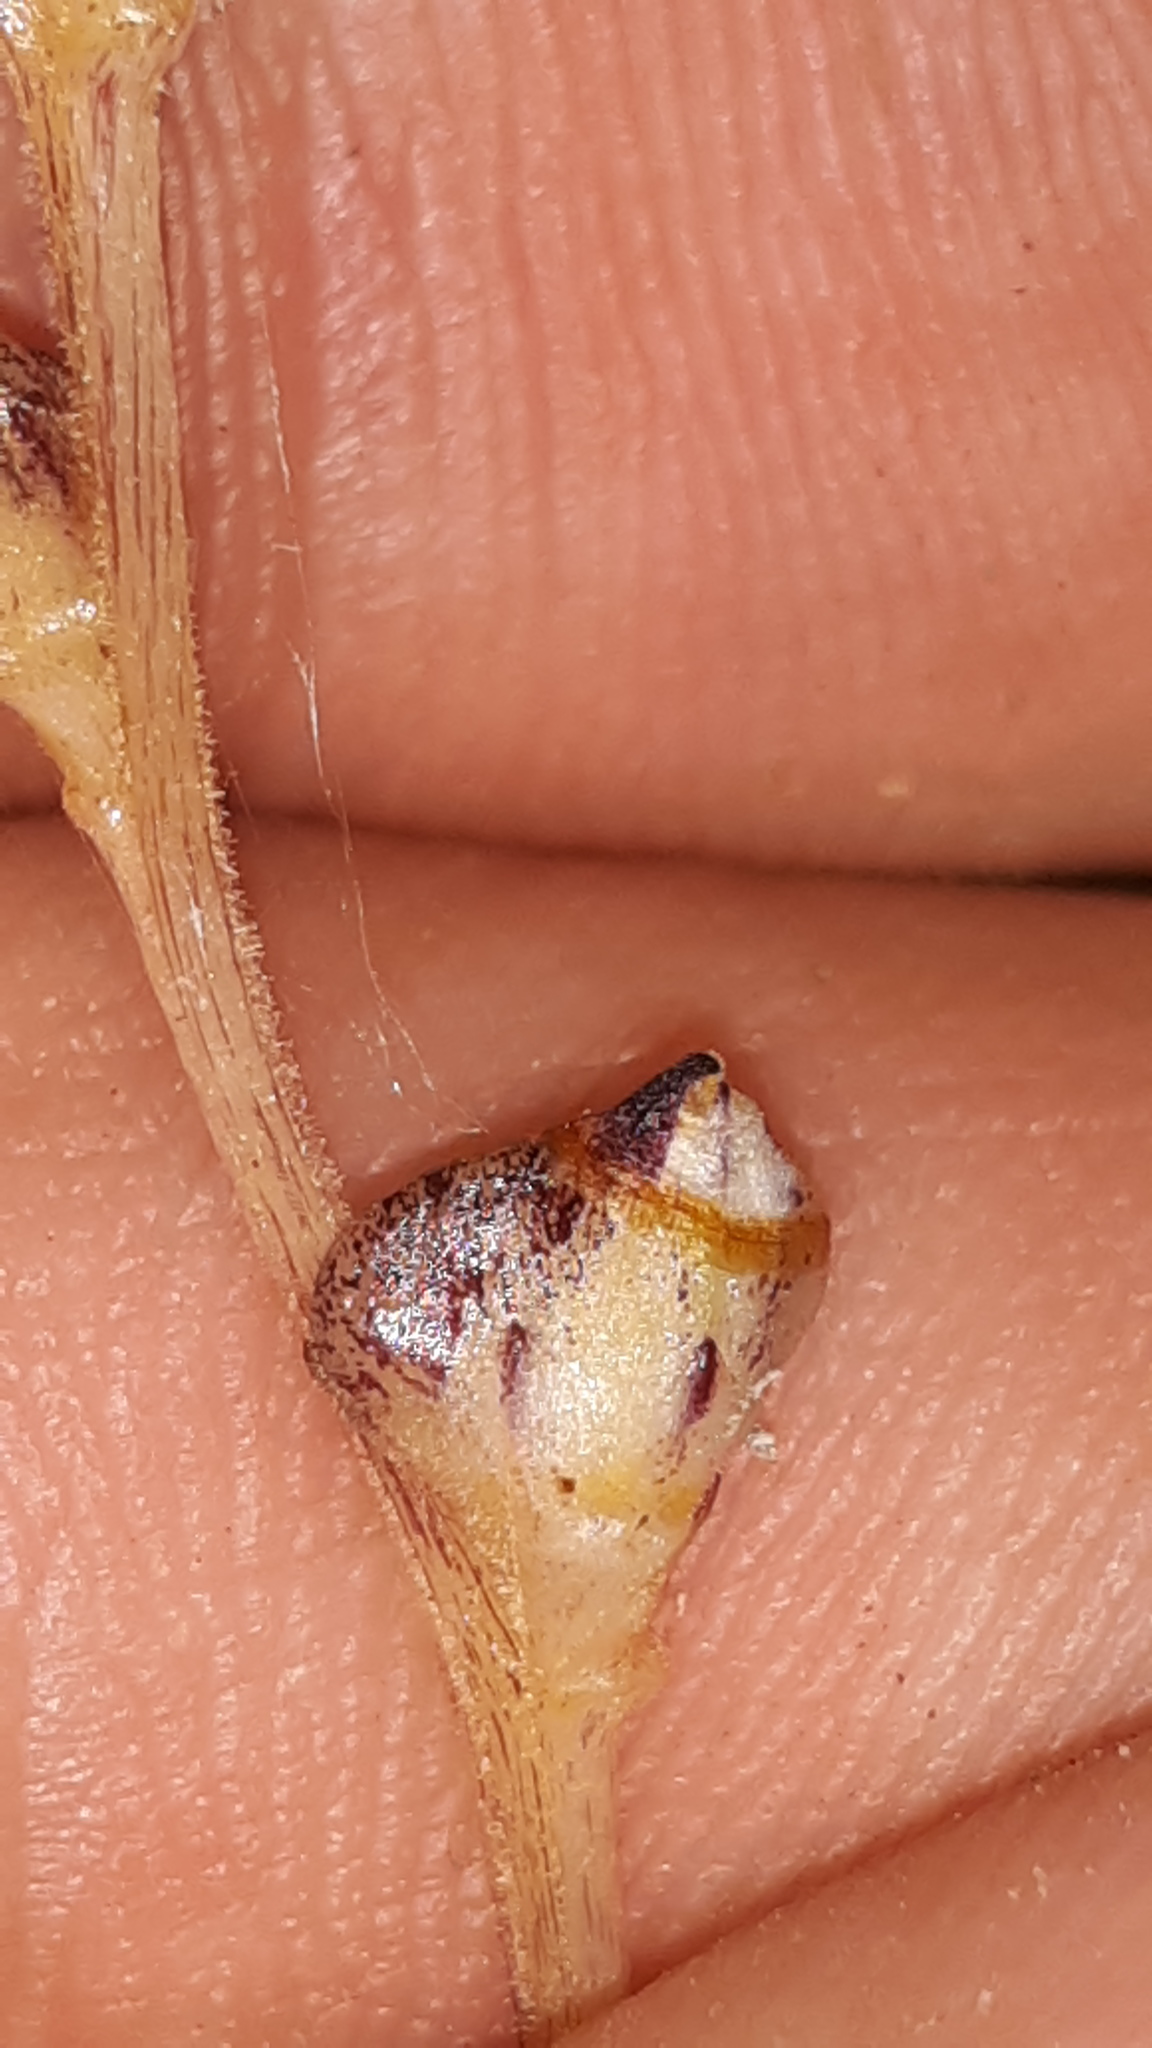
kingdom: Plantae
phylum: Tracheophyta
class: Magnoliopsida
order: Lamiales
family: Orobanchaceae
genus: Epifagus
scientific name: Epifagus virginiana
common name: Beechdrops
